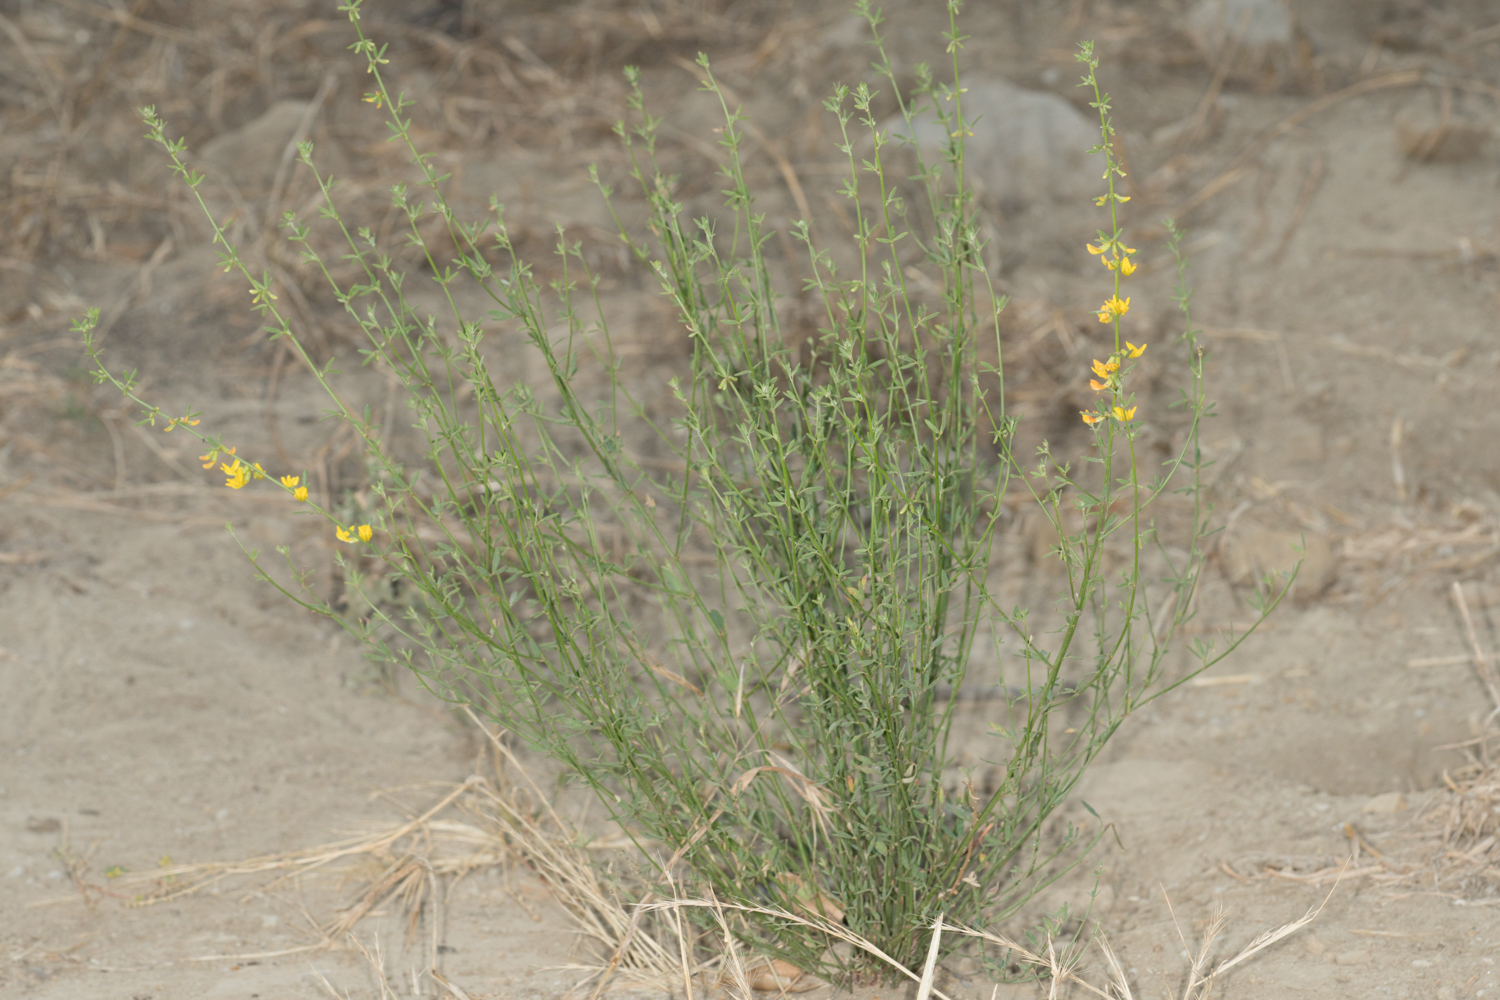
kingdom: Plantae
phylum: Tracheophyta
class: Magnoliopsida
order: Fabales
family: Fabaceae
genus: Acmispon
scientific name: Acmispon glaber
